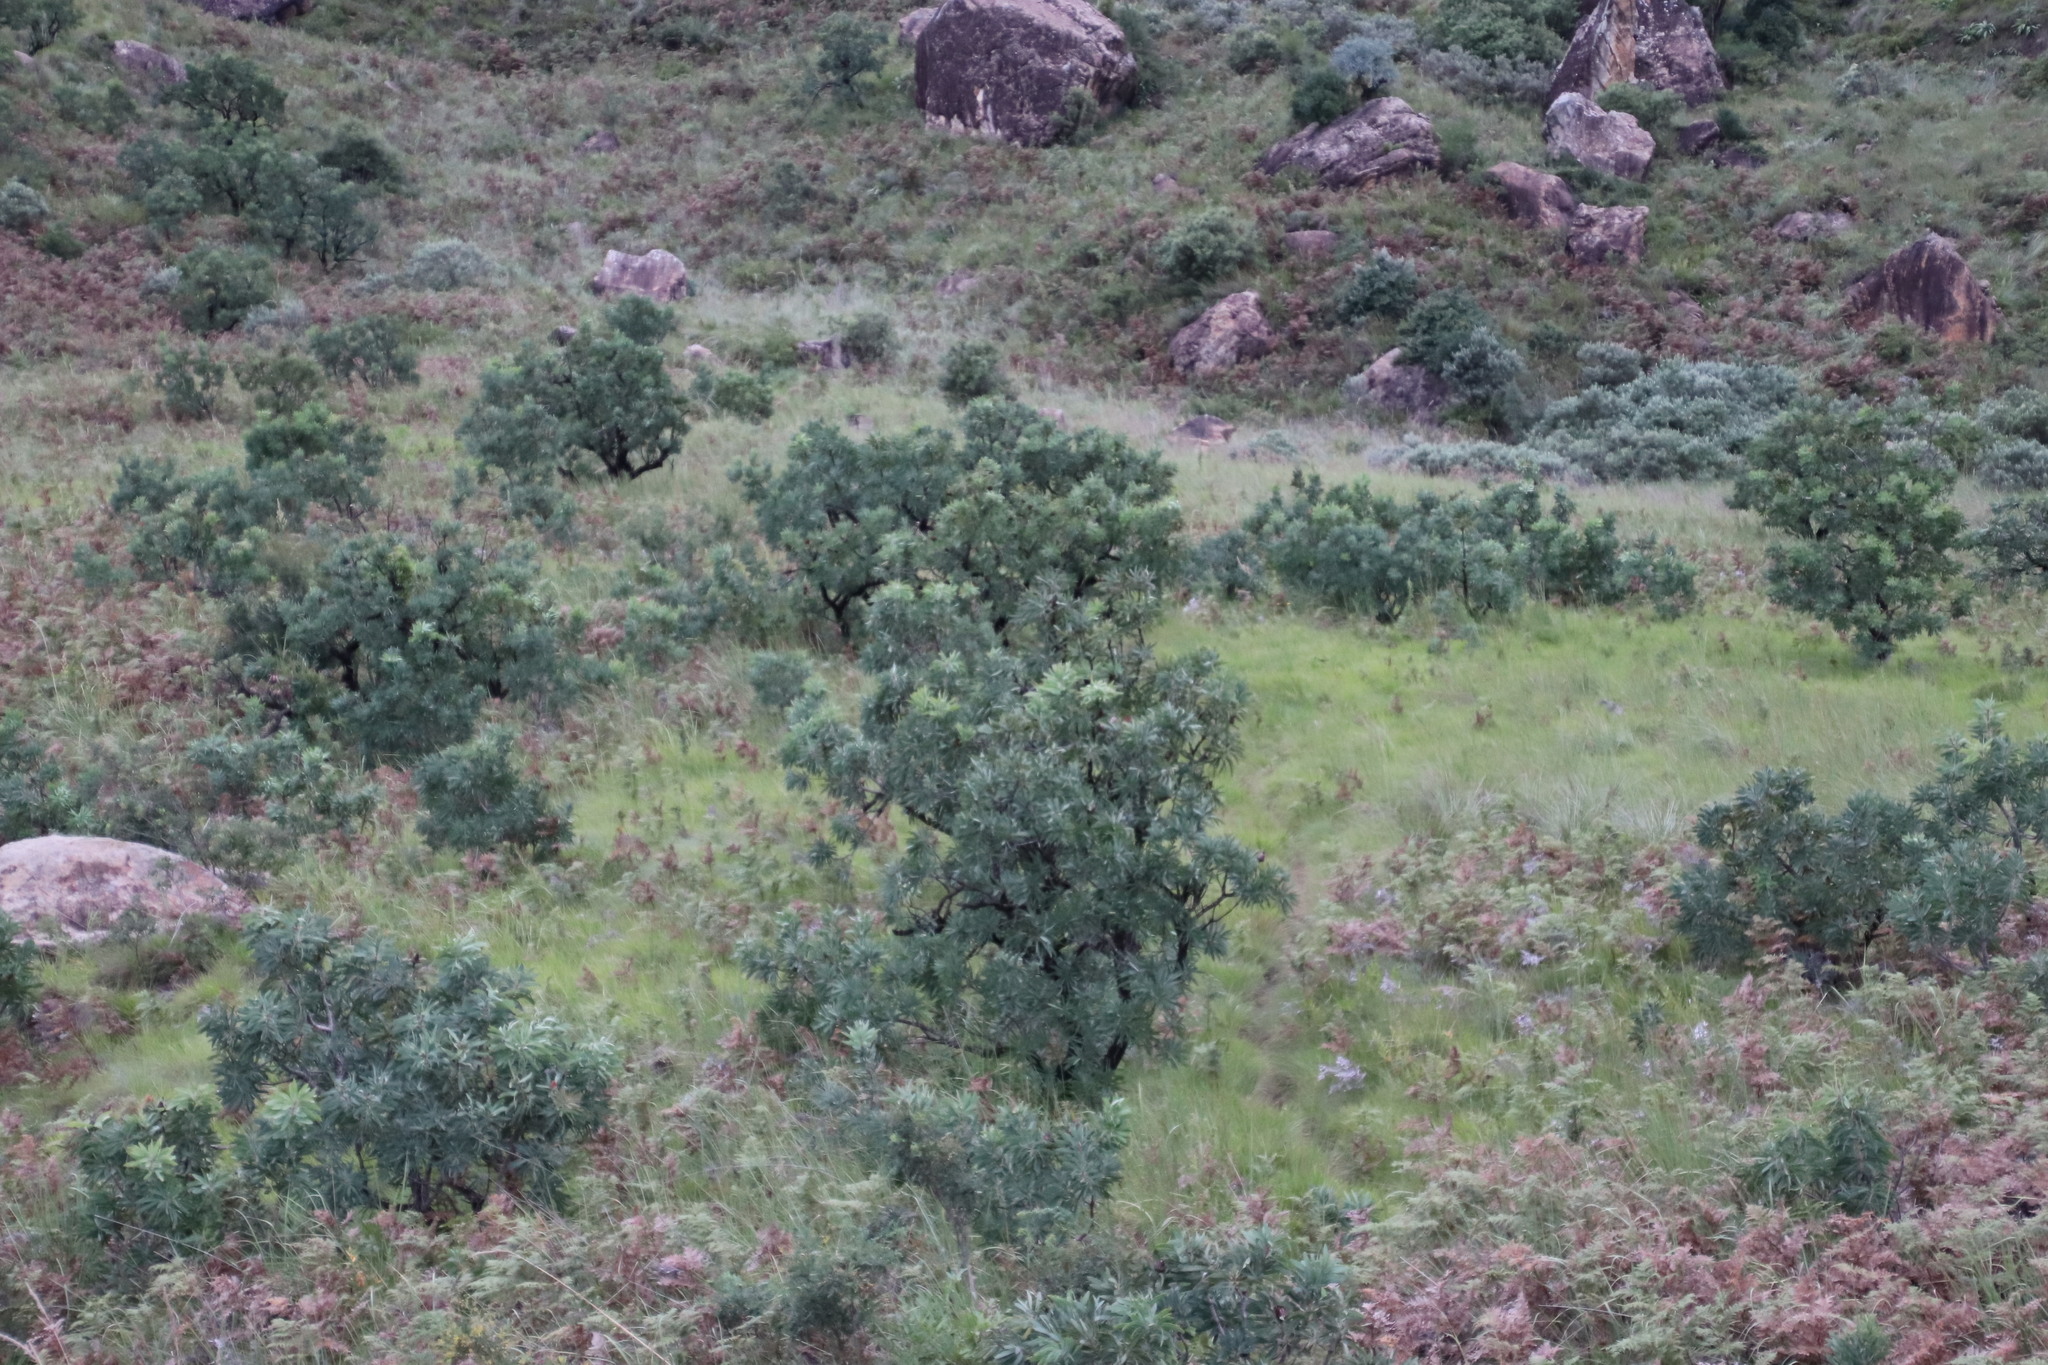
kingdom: Plantae
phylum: Tracheophyta
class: Magnoliopsida
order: Proteales
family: Proteaceae
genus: Protea
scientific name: Protea caffra
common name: Common sugarbush
